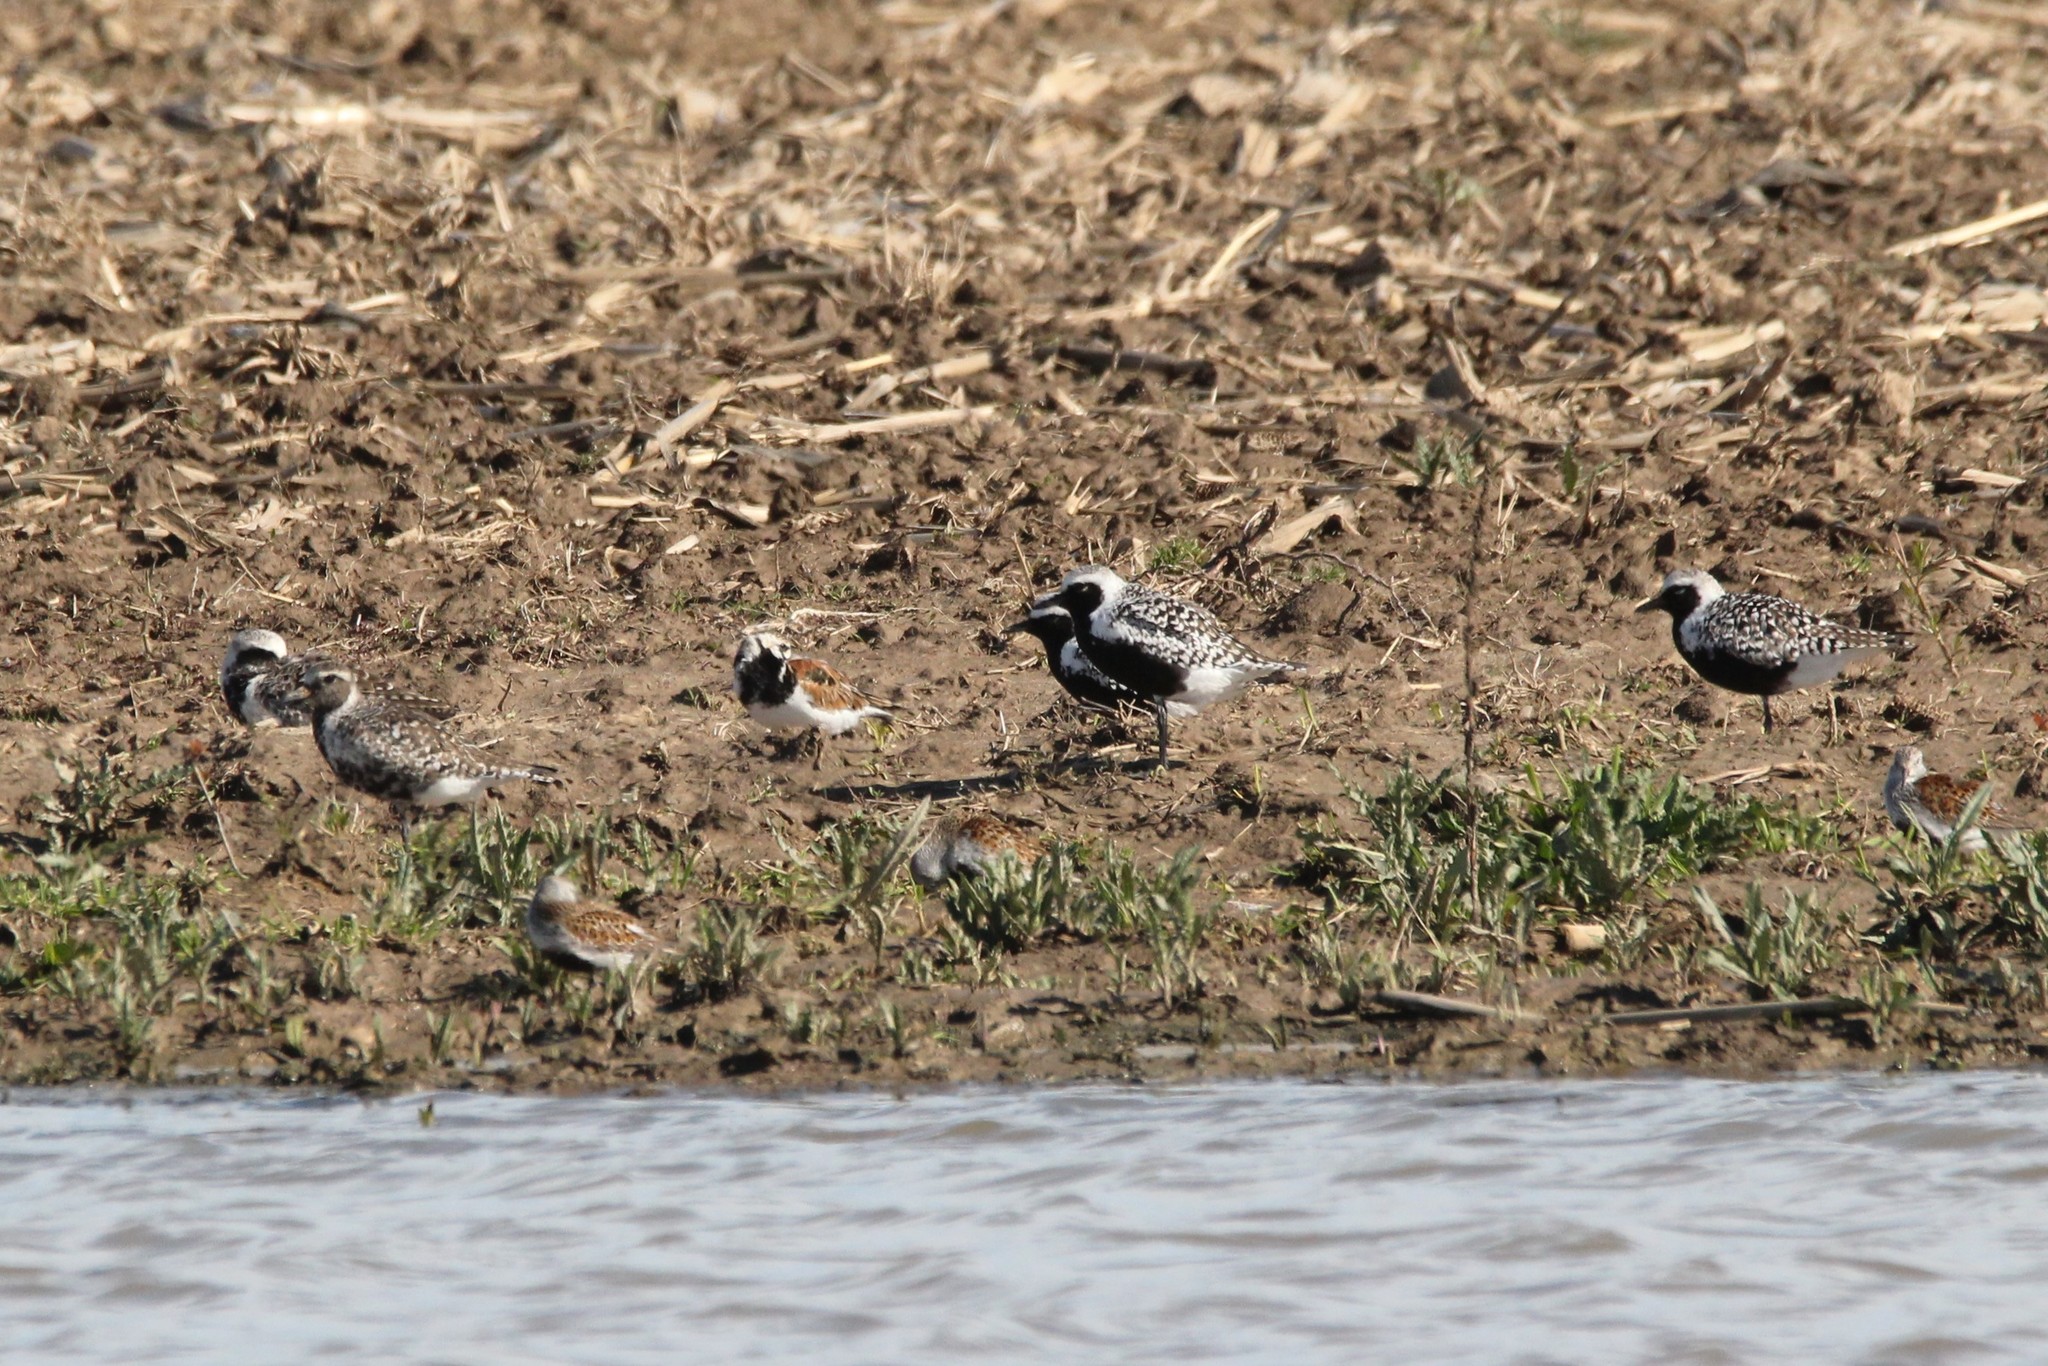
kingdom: Animalia
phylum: Chordata
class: Aves
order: Charadriiformes
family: Charadriidae
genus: Pluvialis
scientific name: Pluvialis squatarola
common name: Grey plover
